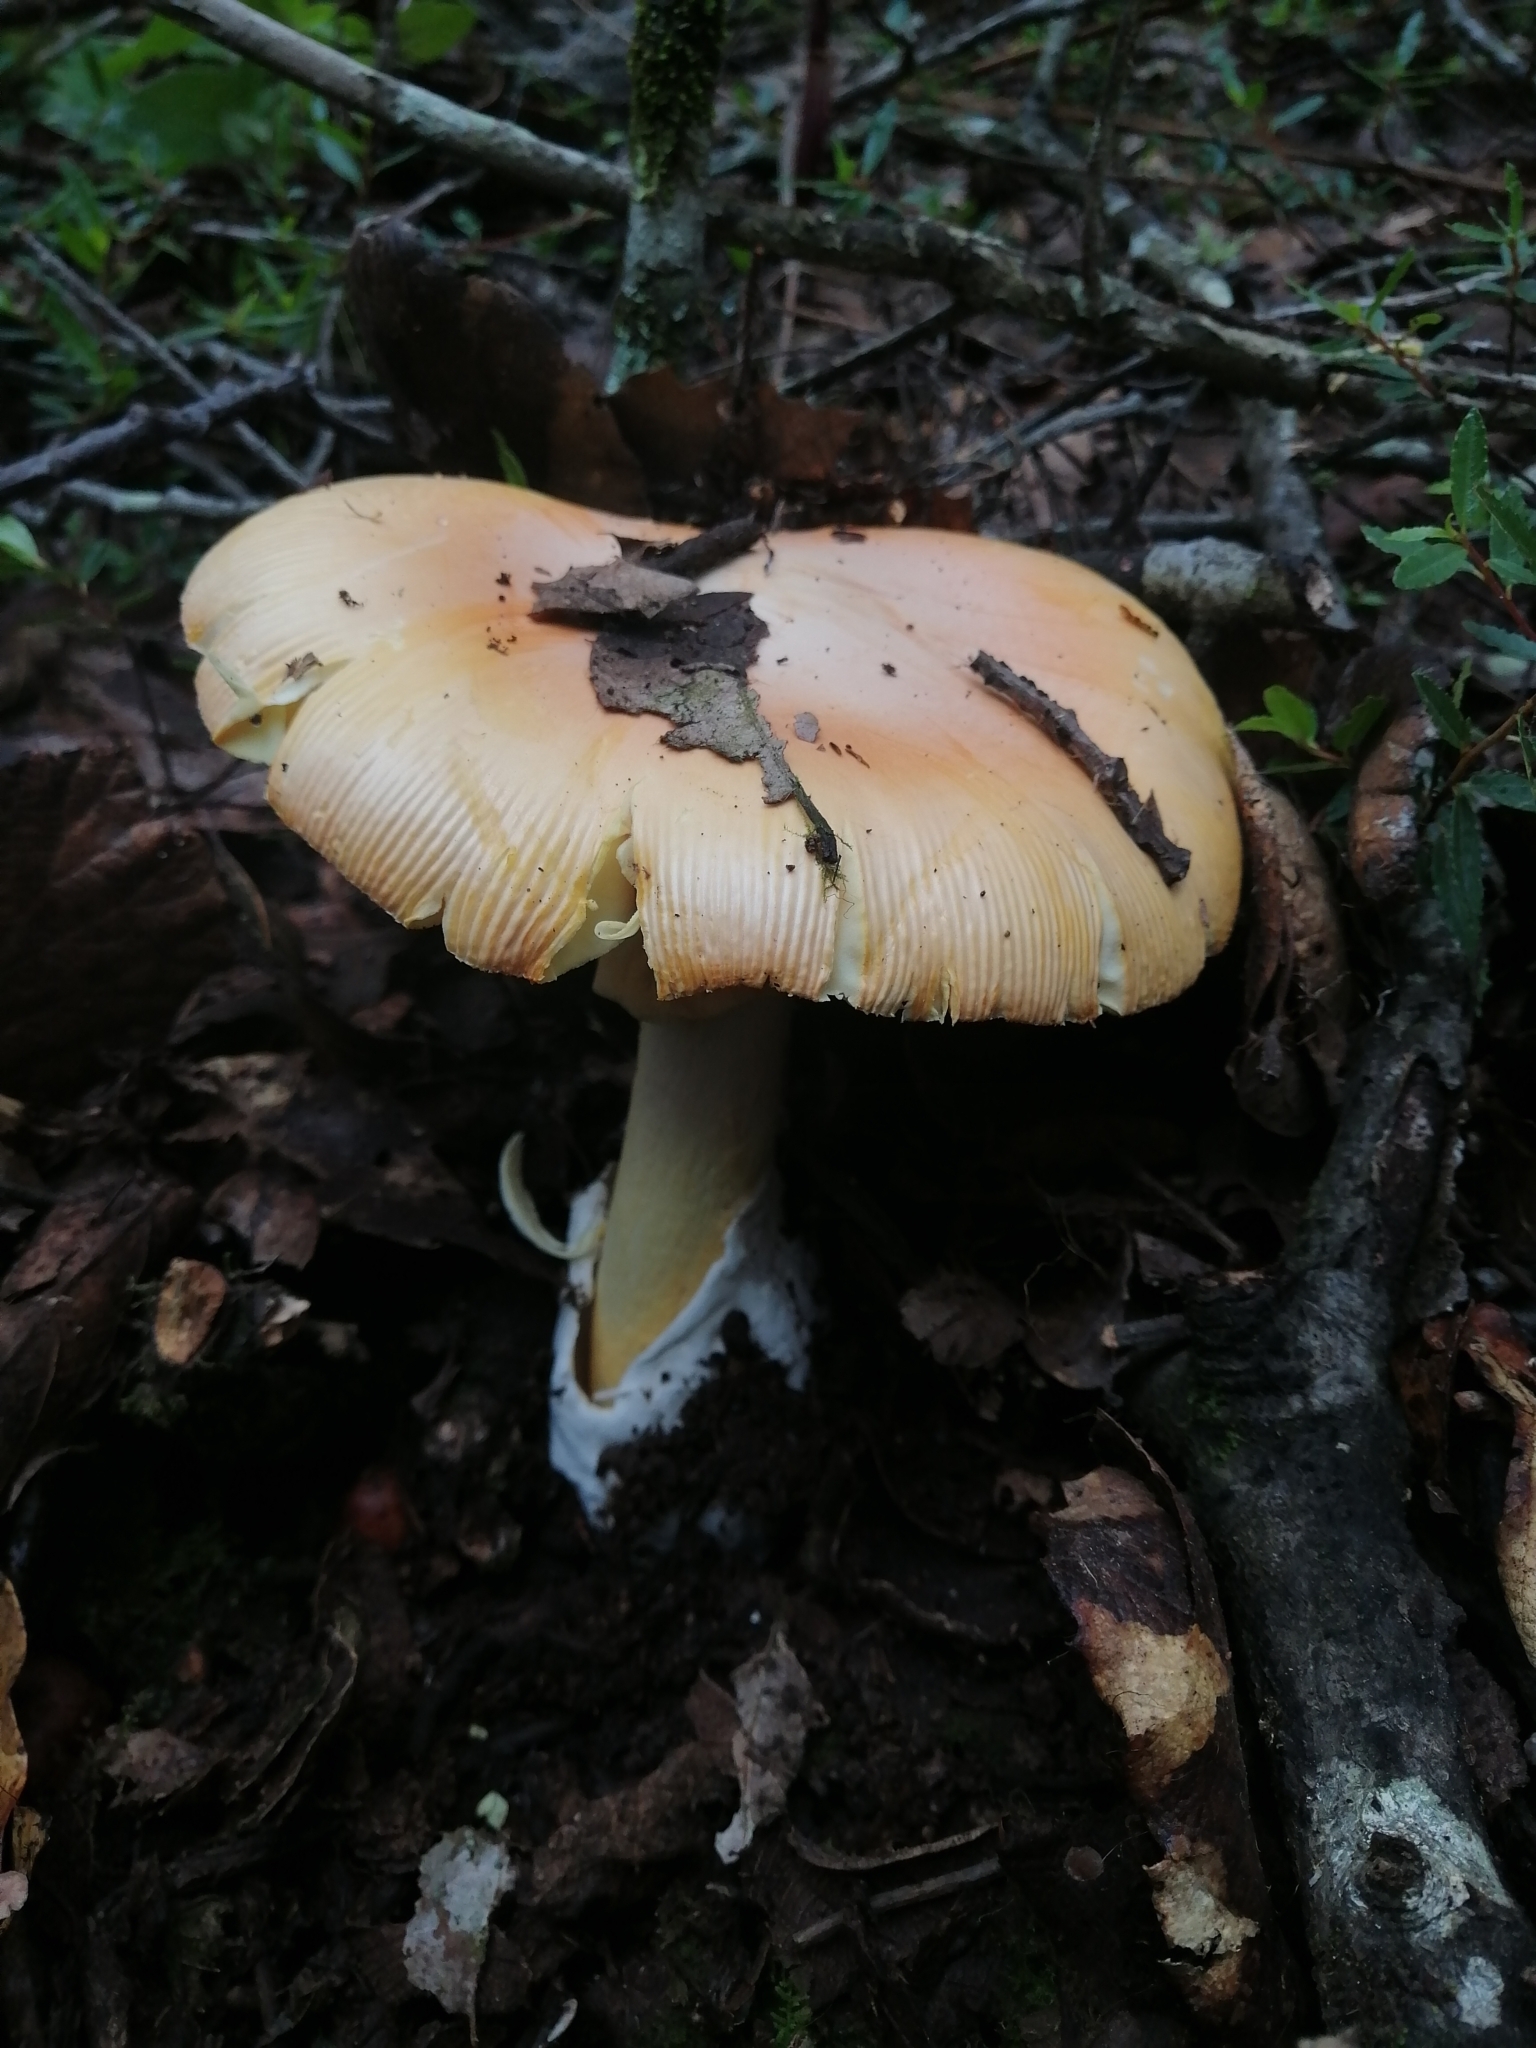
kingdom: Fungi
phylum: Basidiomycota
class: Agaricomycetes
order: Agaricales
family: Amanitaceae
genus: Amanita
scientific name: Amanita basii
